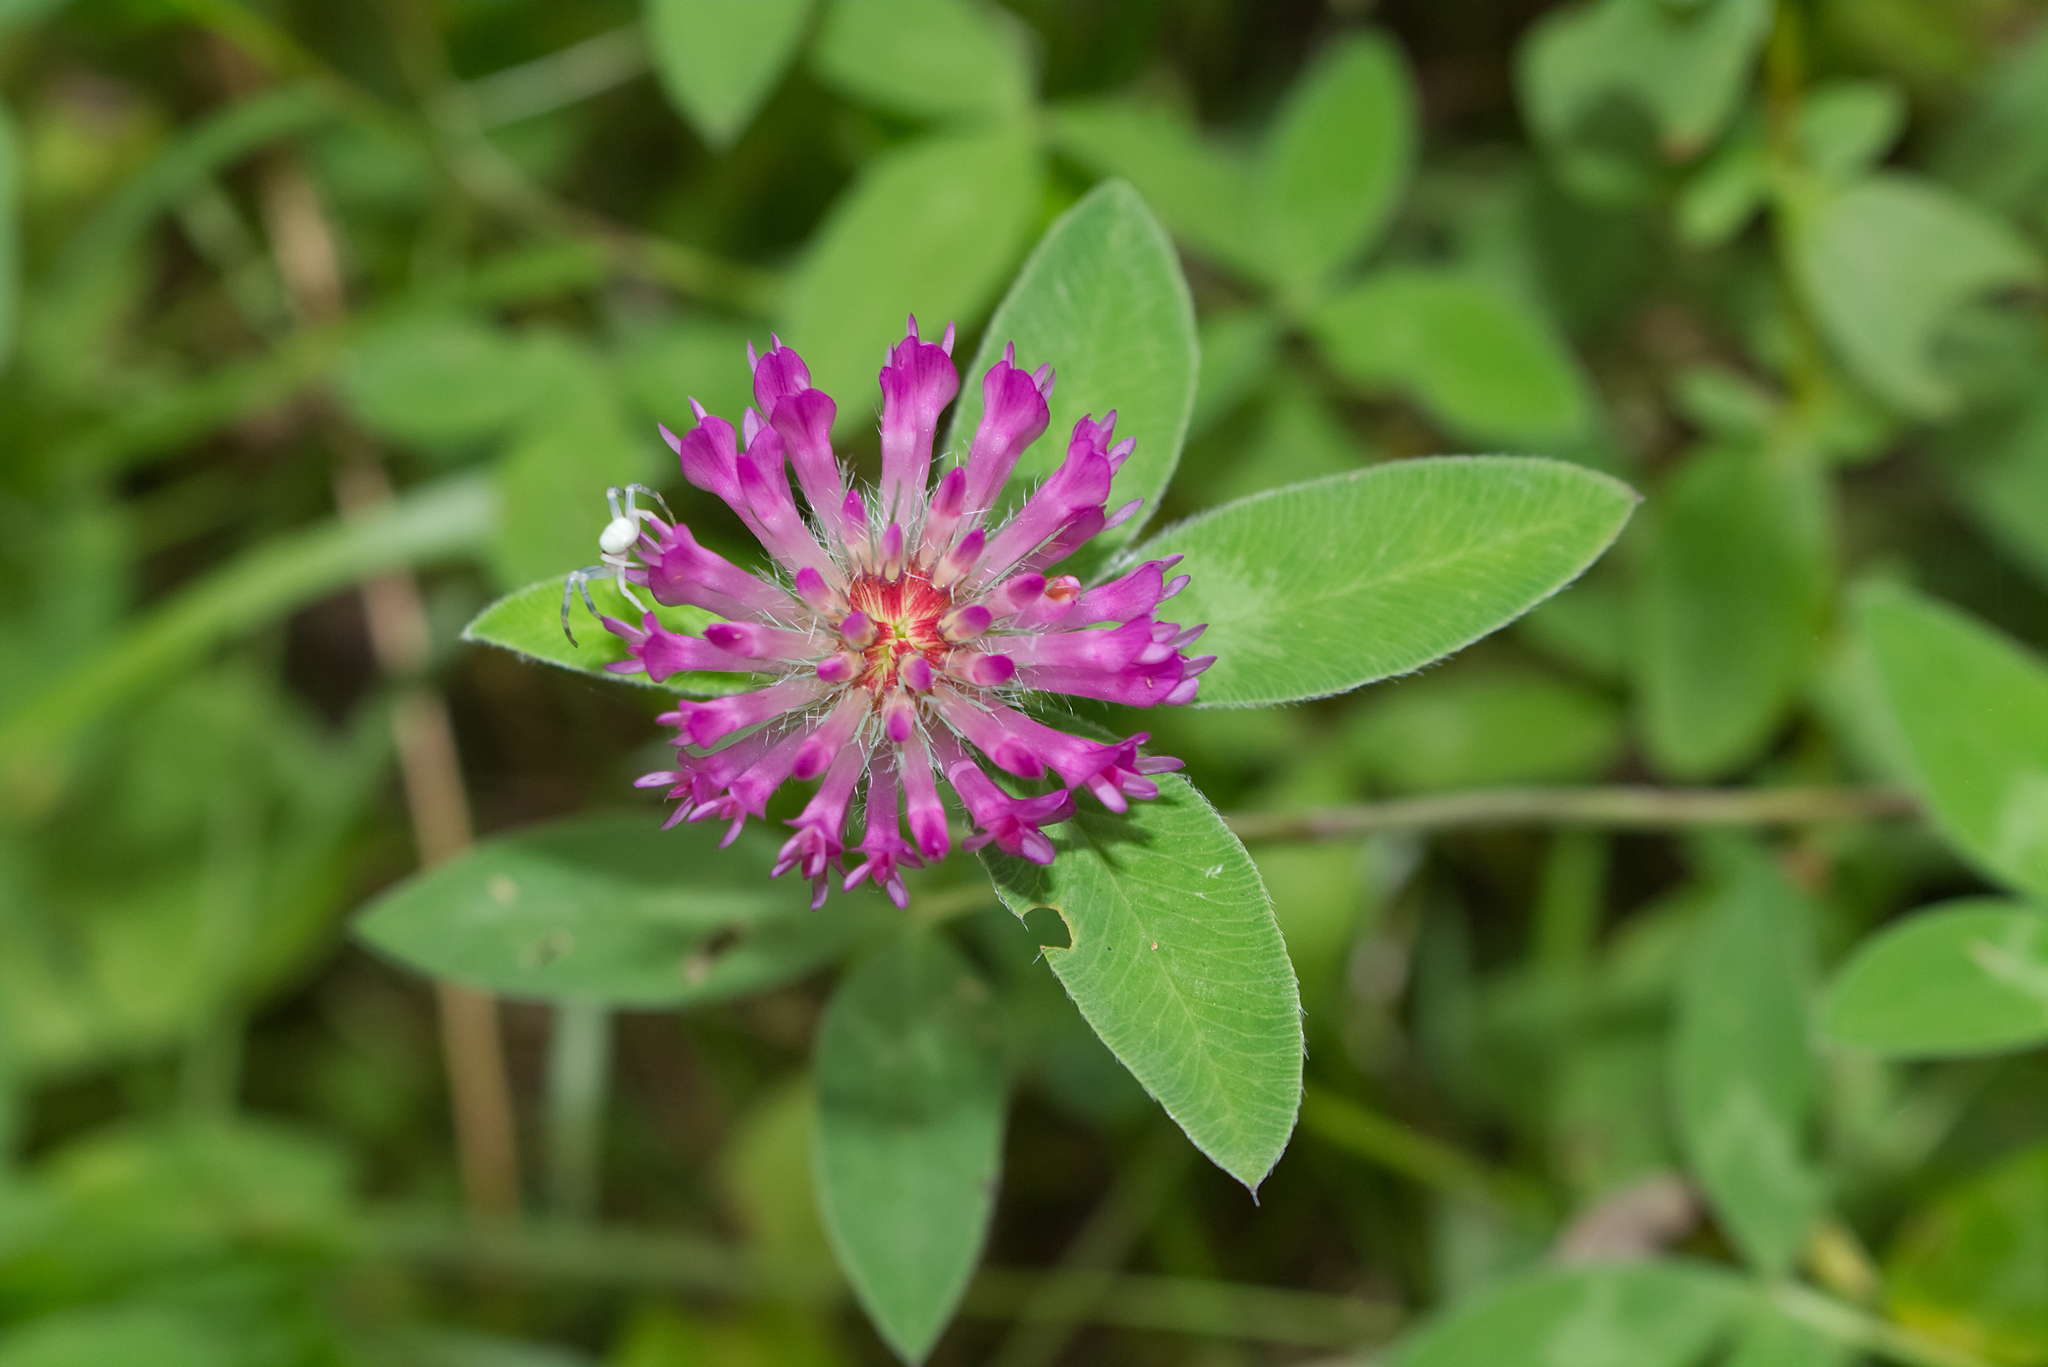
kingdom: Plantae
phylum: Tracheophyta
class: Magnoliopsida
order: Fabales
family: Fabaceae
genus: Trifolium
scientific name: Trifolium medium
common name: Zigzag clover
